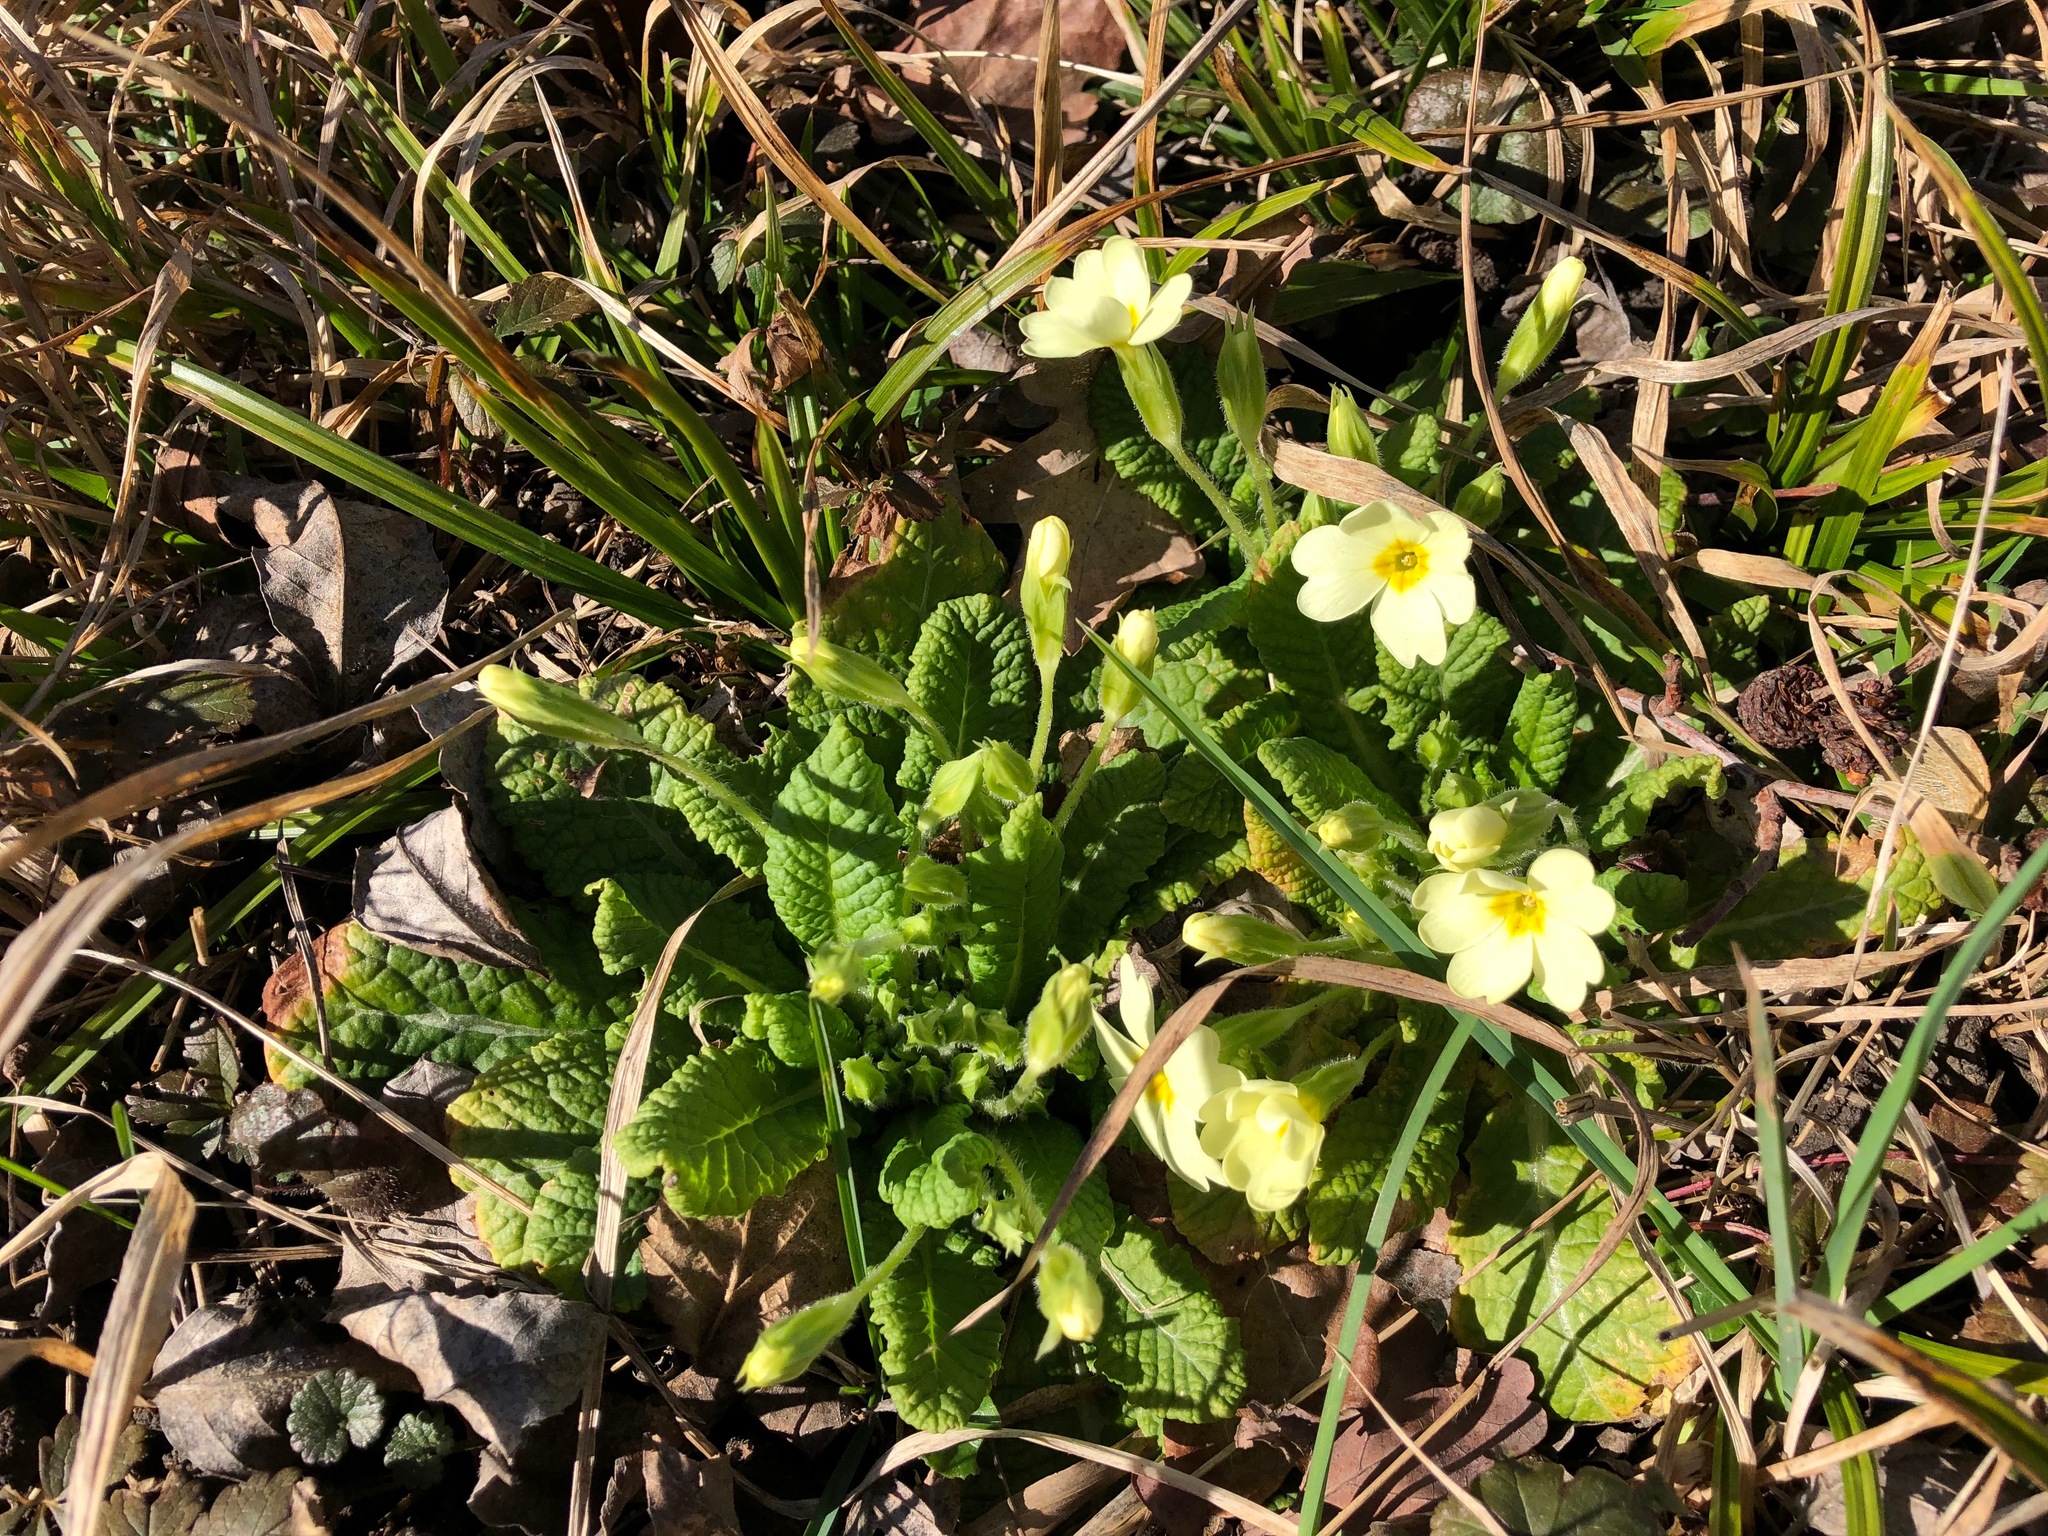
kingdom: Plantae
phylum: Tracheophyta
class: Magnoliopsida
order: Ericales
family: Primulaceae
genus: Primula
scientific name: Primula vulgaris
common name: Primrose
